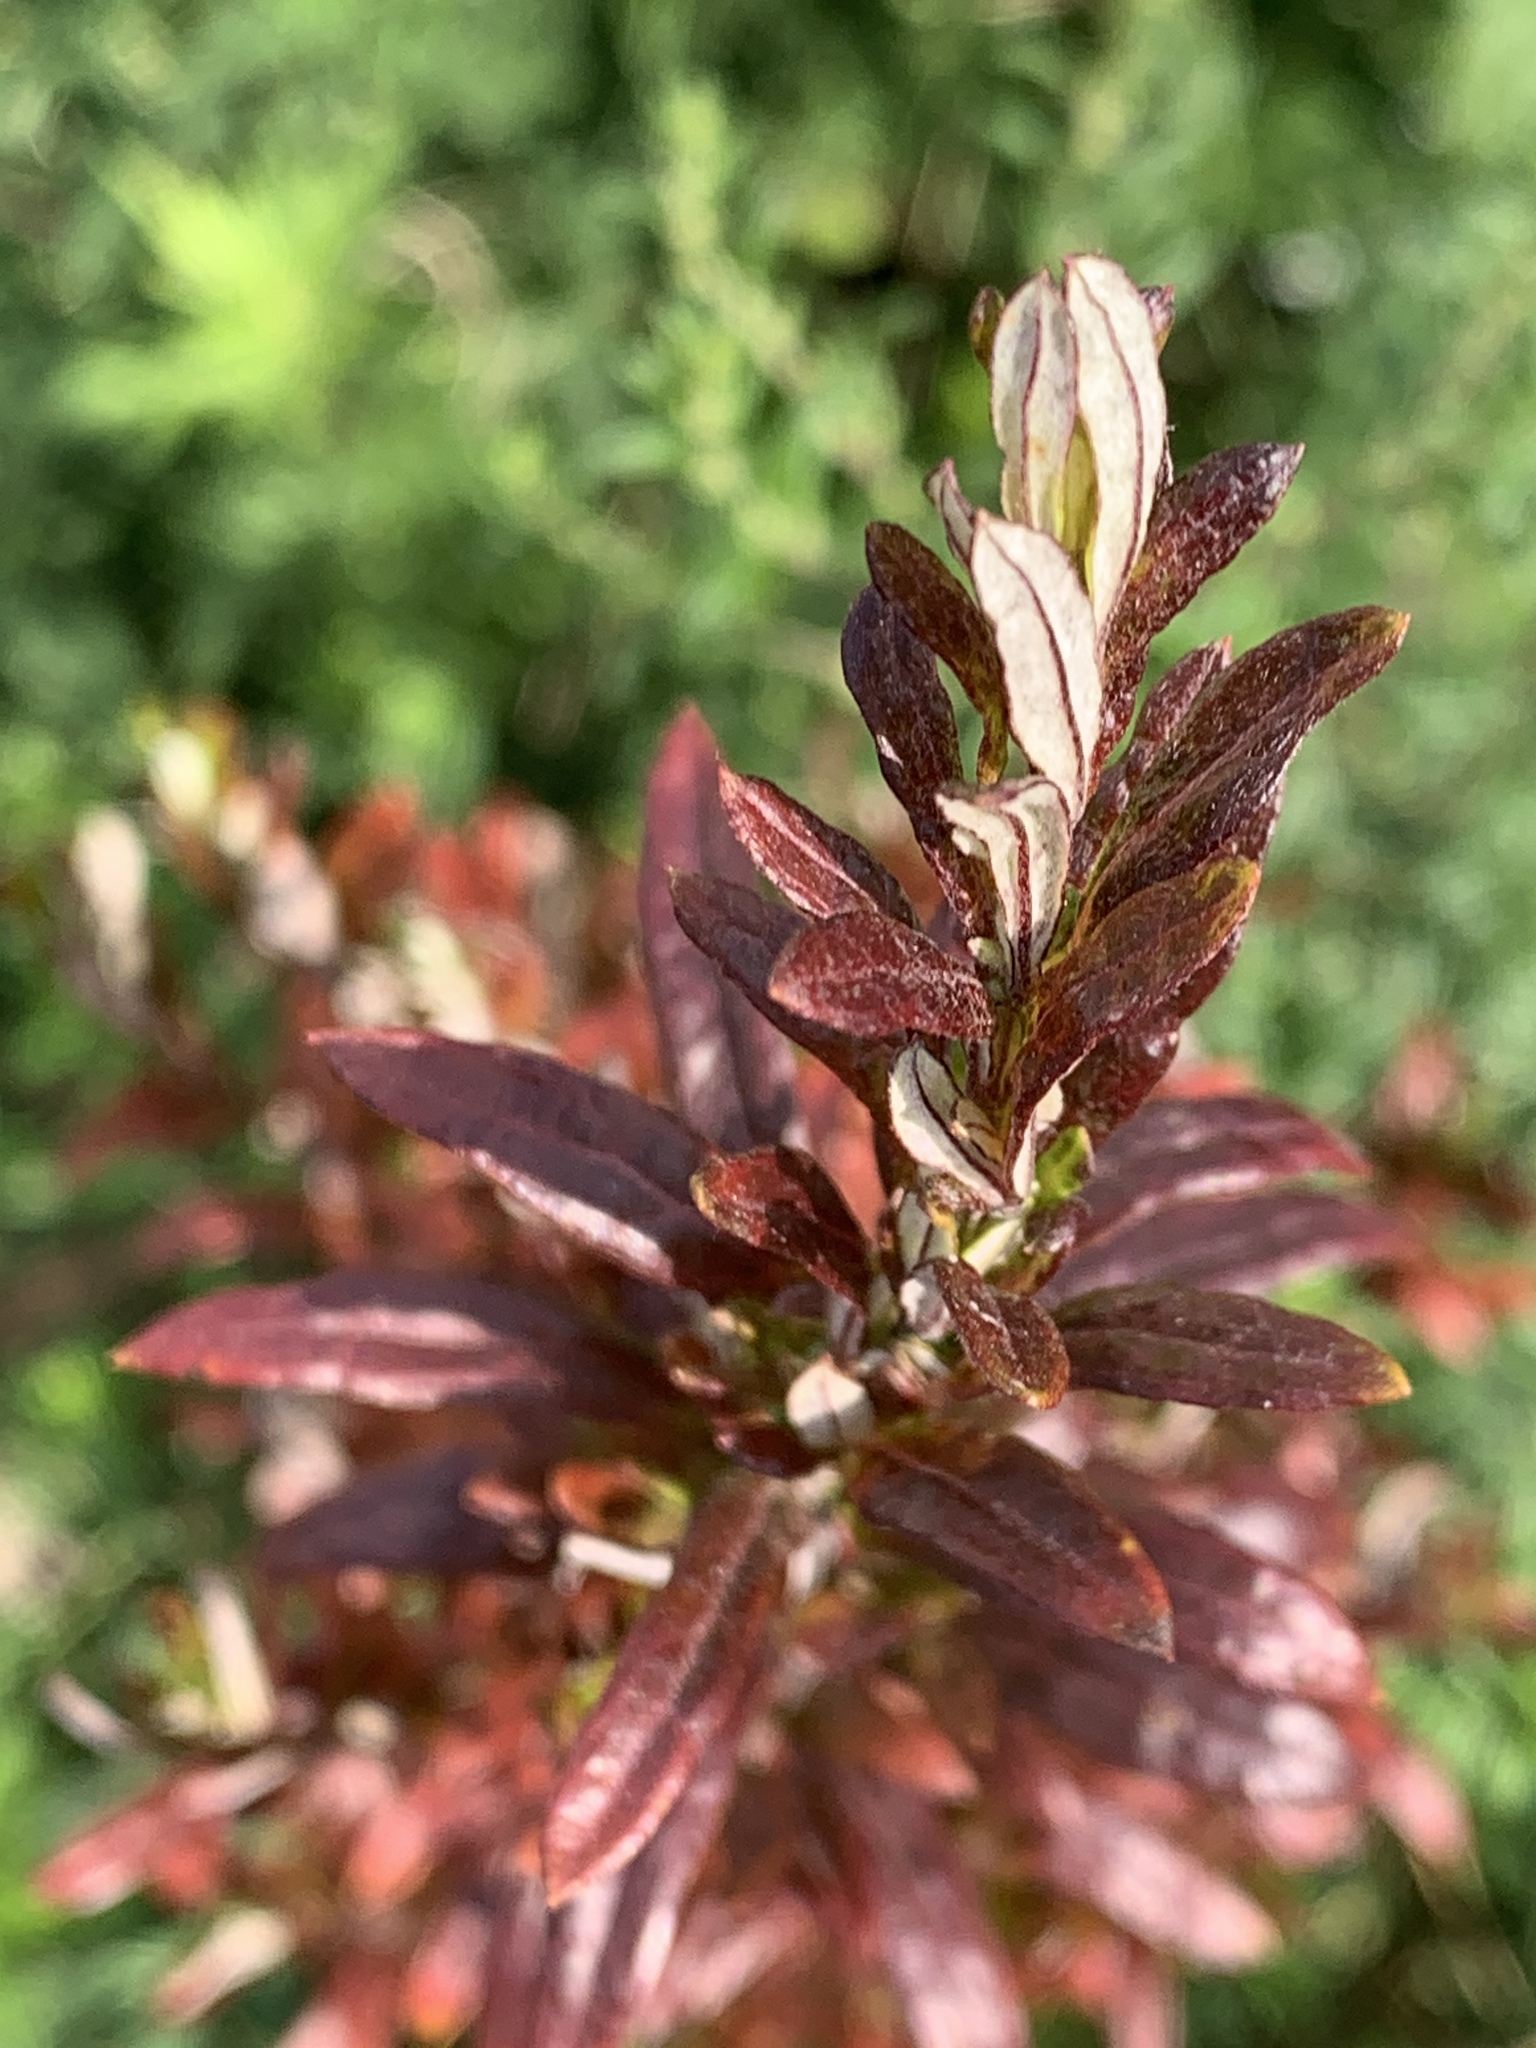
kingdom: Plantae
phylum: Tracheophyta
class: Magnoliopsida
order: Asterales
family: Asteraceae
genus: Artemisia
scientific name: Artemisia vulgaris
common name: Mugwort
